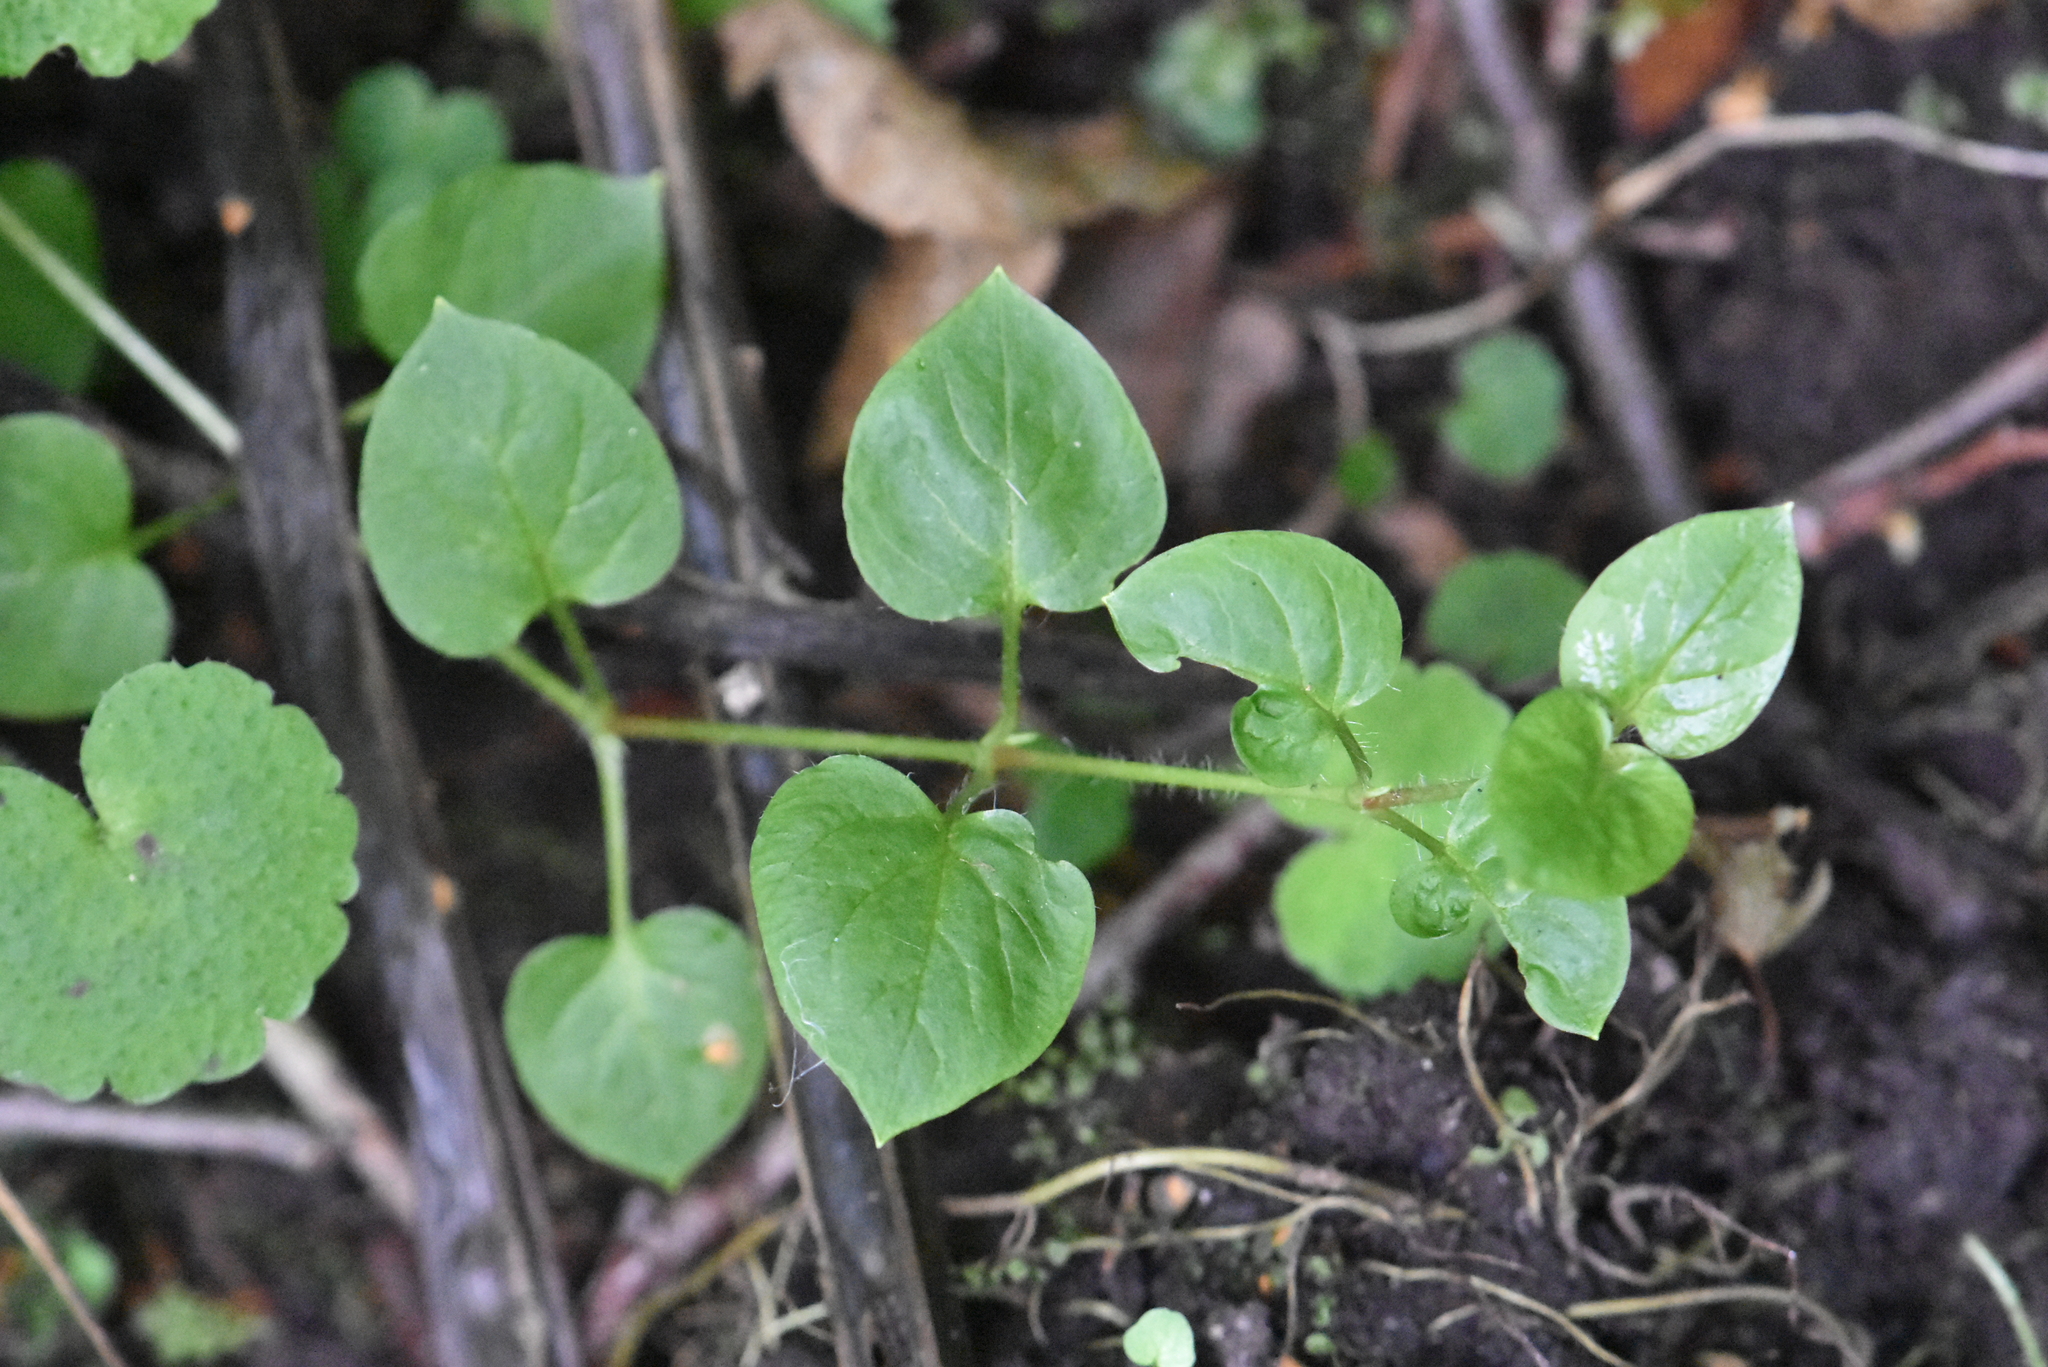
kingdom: Plantae
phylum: Tracheophyta
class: Magnoliopsida
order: Caryophyllales
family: Caryophyllaceae
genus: Stellaria
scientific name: Stellaria nemorum
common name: Wood stitchwort
